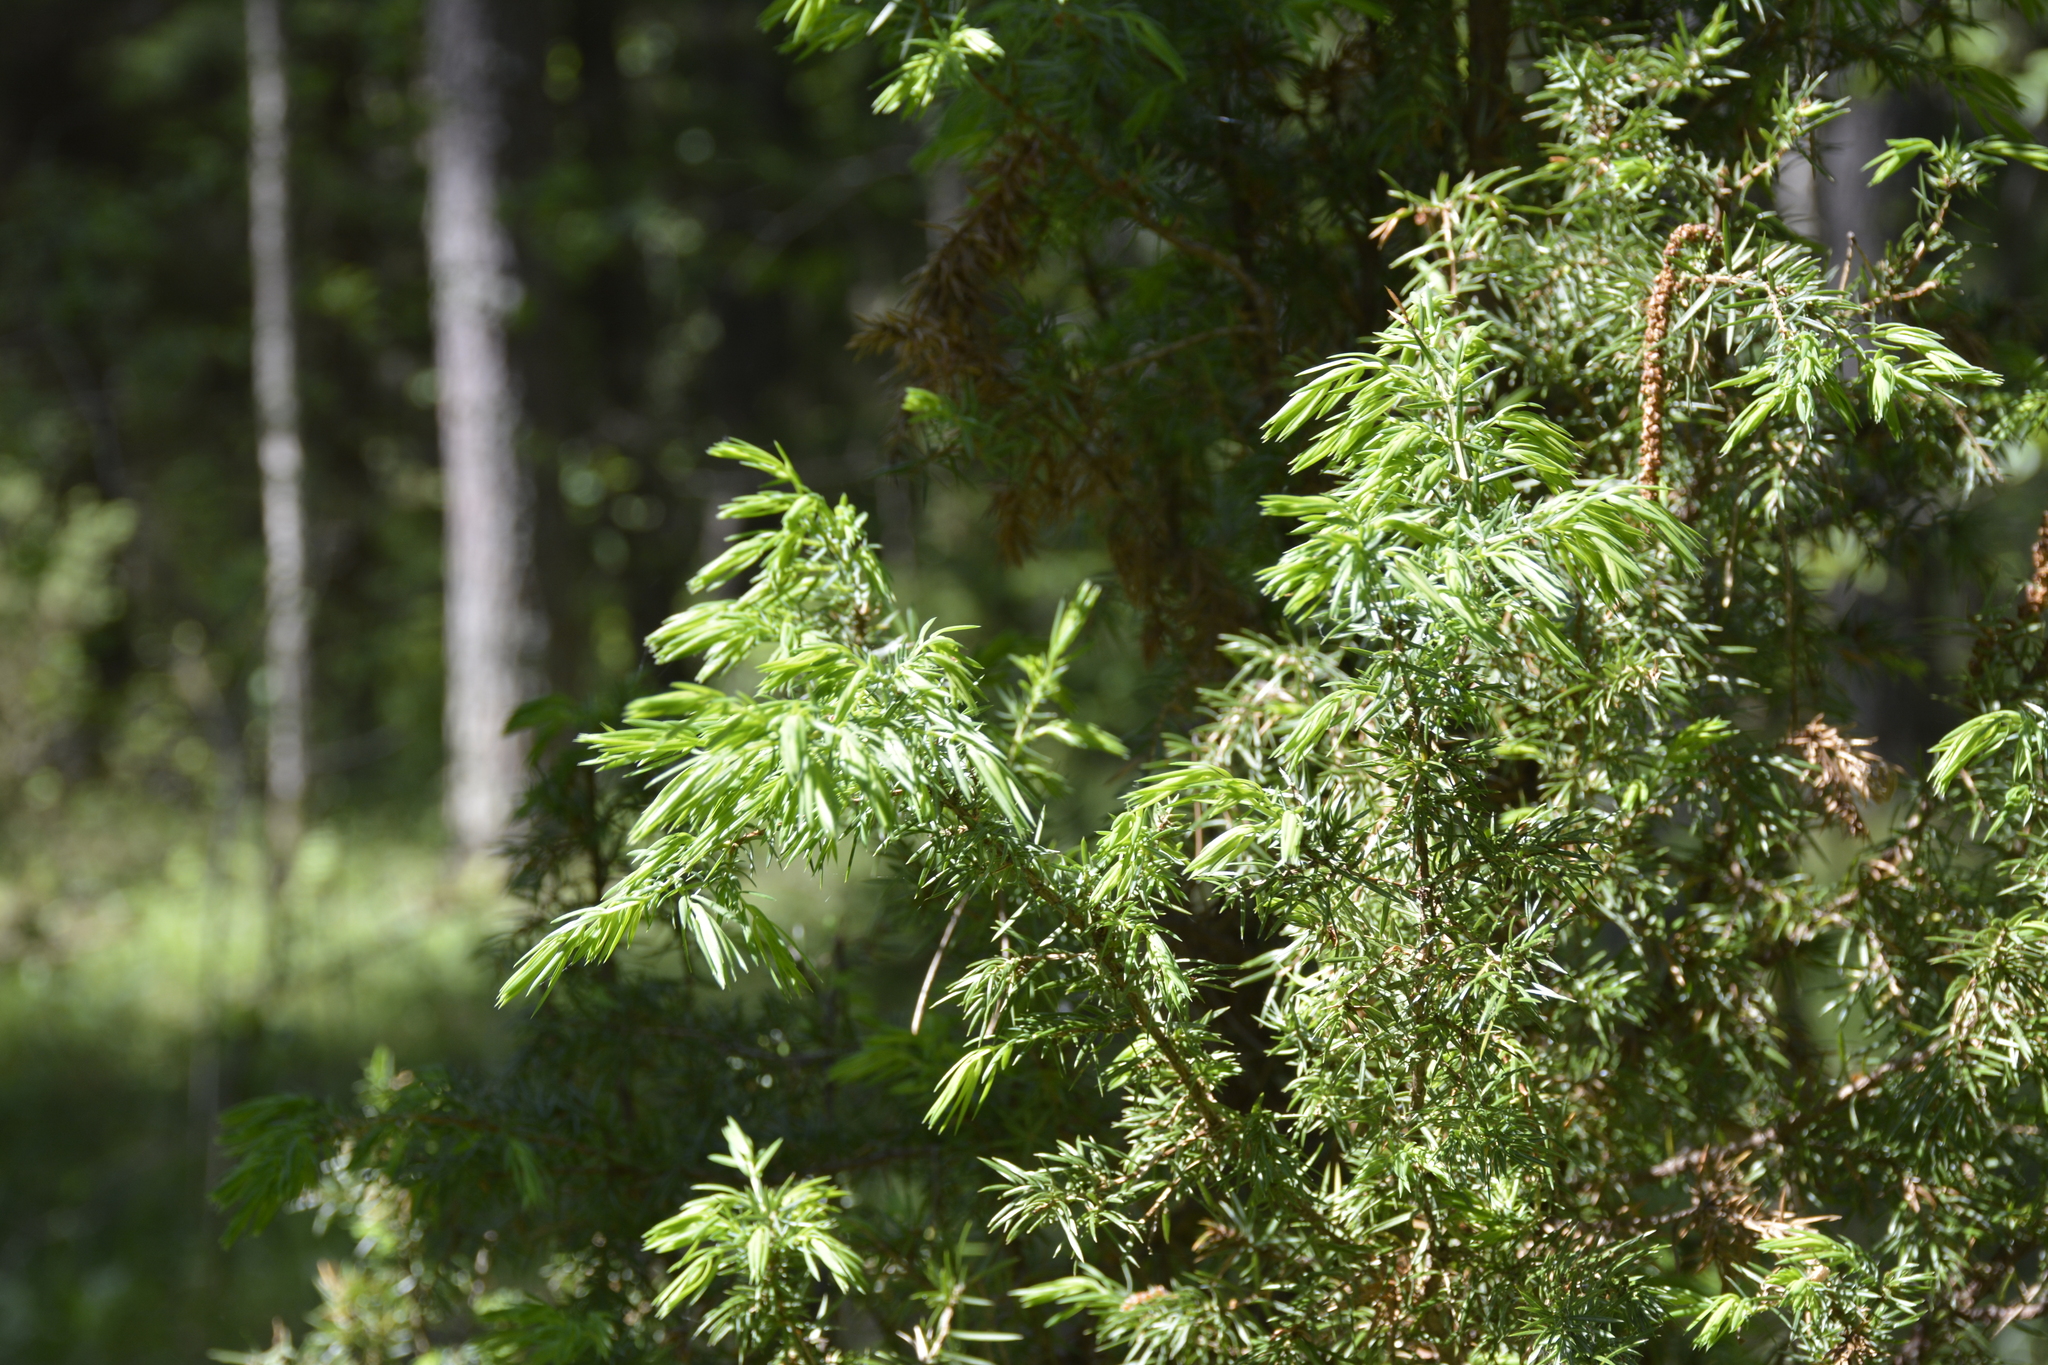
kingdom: Plantae
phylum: Tracheophyta
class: Pinopsida
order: Pinales
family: Cupressaceae
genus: Juniperus
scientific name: Juniperus communis
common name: Common juniper
